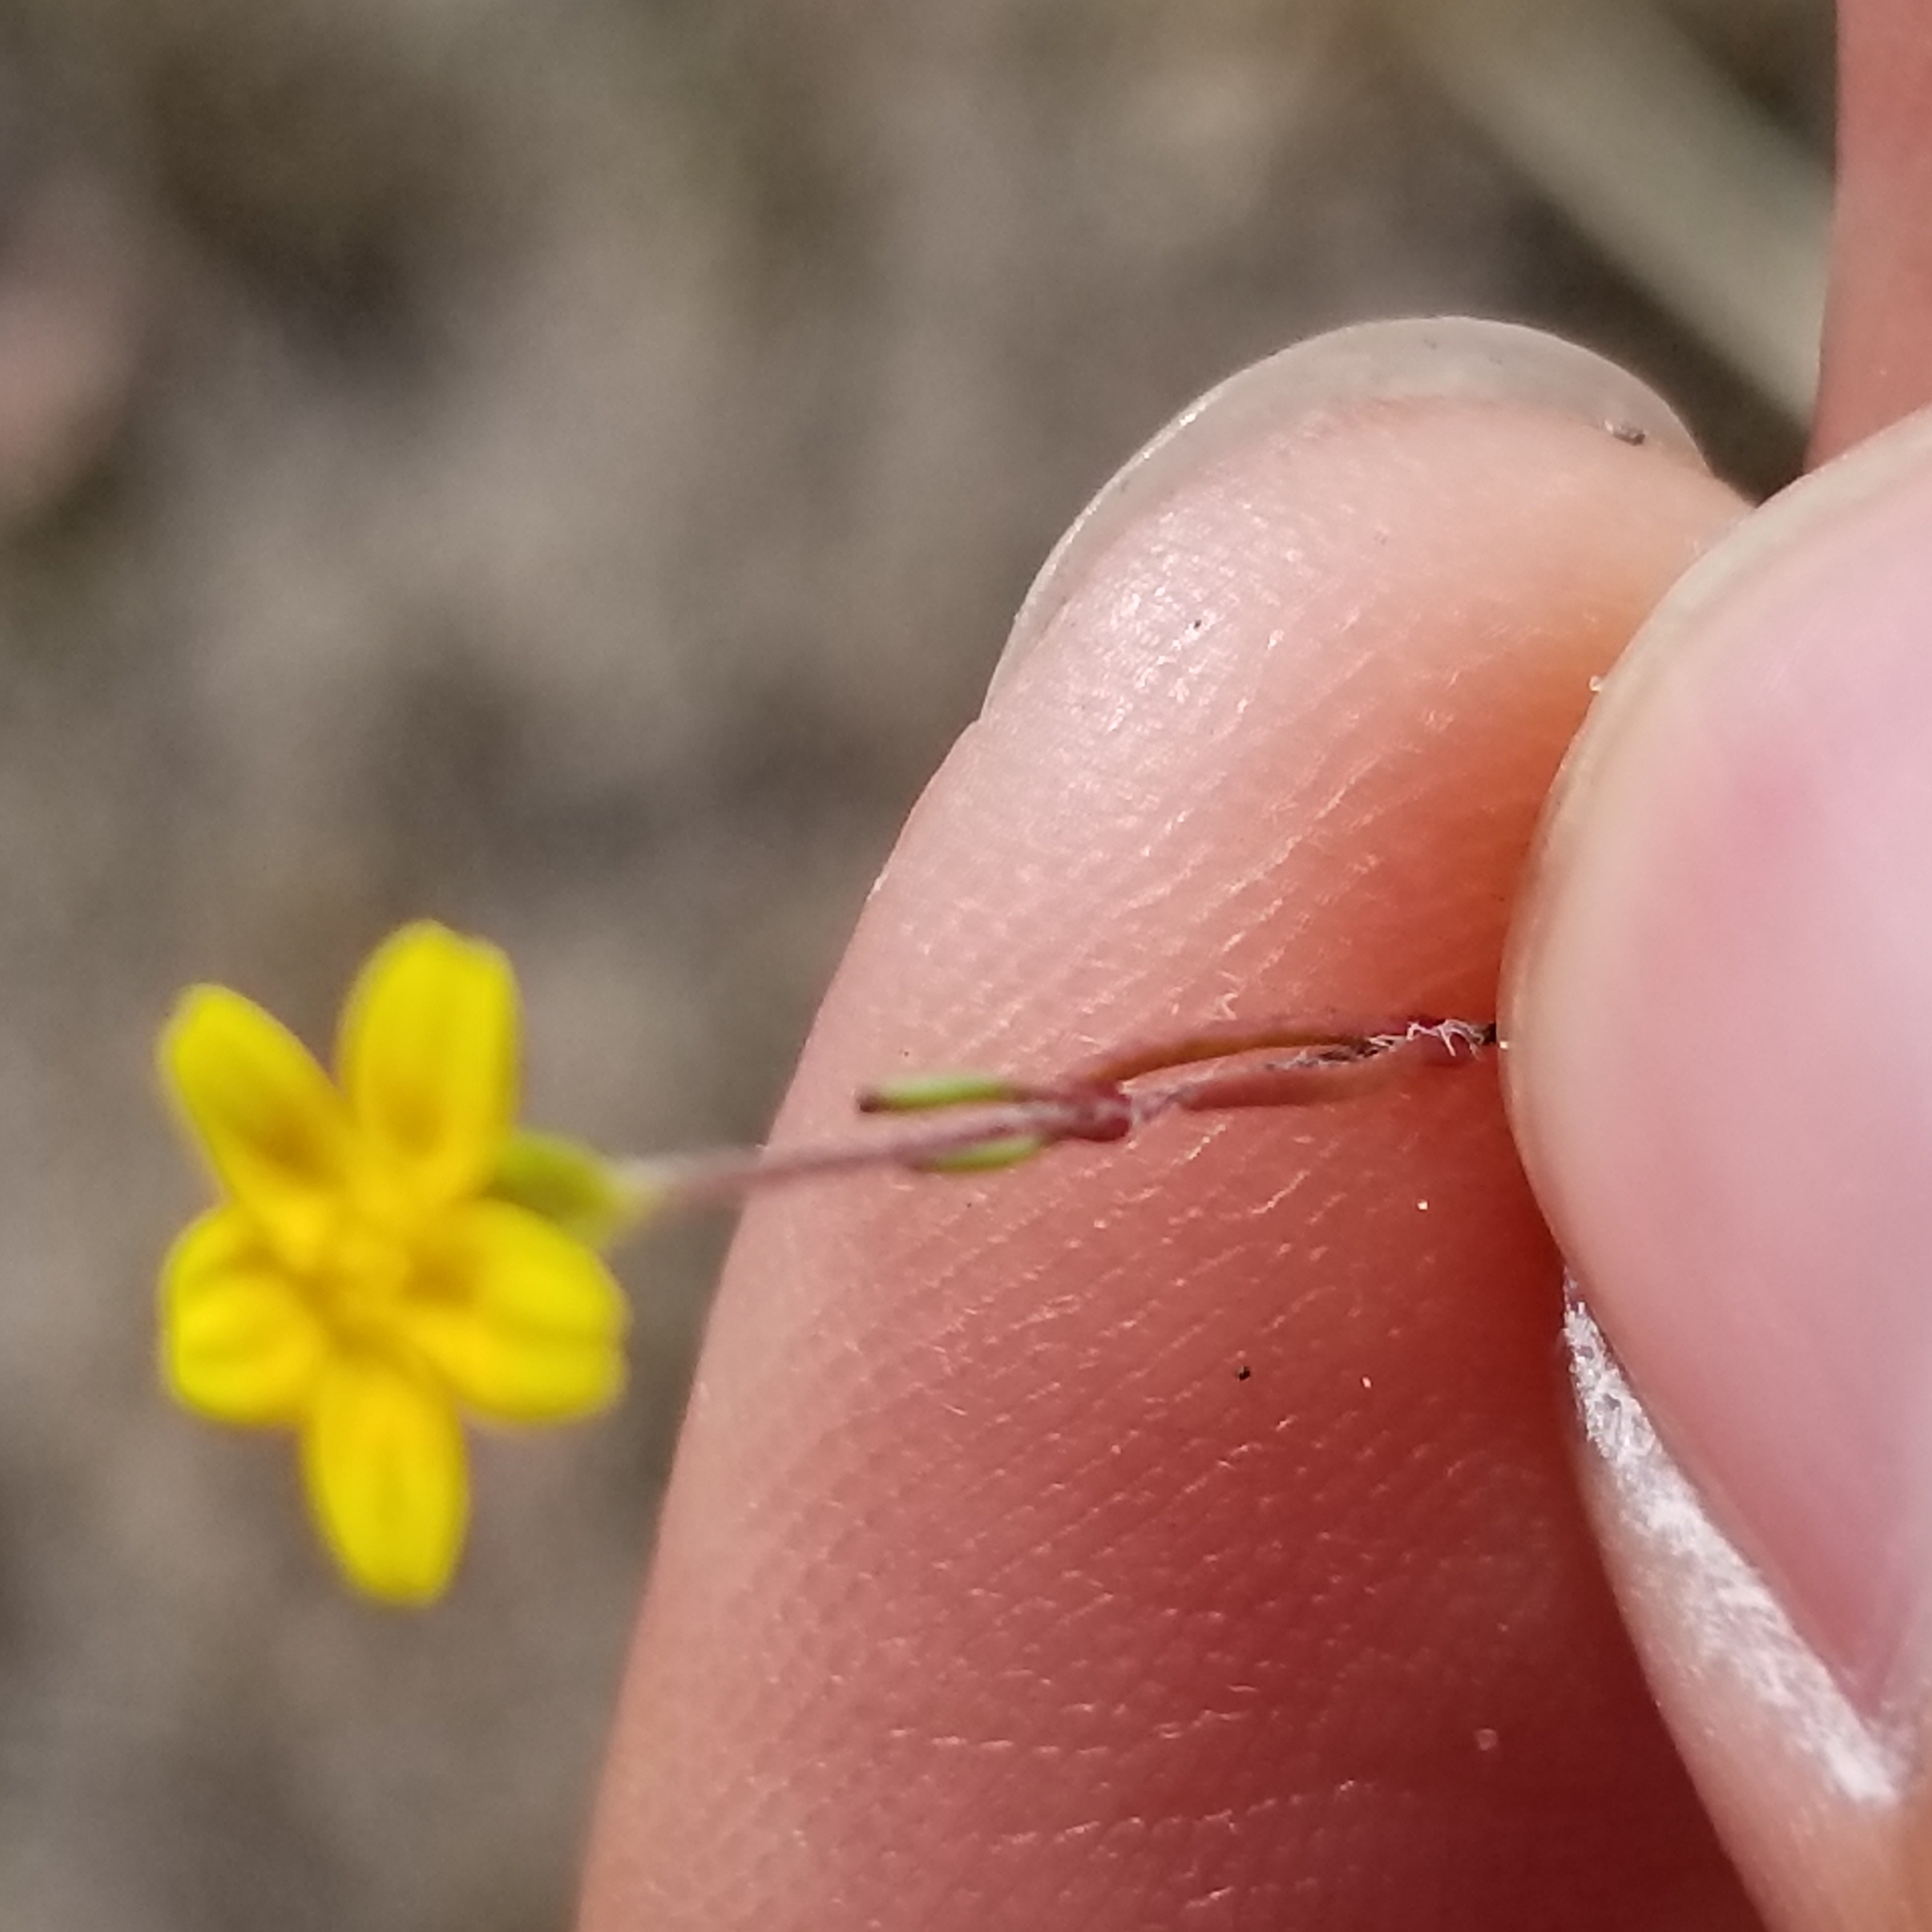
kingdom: Plantae
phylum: Tracheophyta
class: Magnoliopsida
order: Asterales
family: Asteraceae
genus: Lasthenia
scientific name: Lasthenia gracilis
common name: Common goldfields
